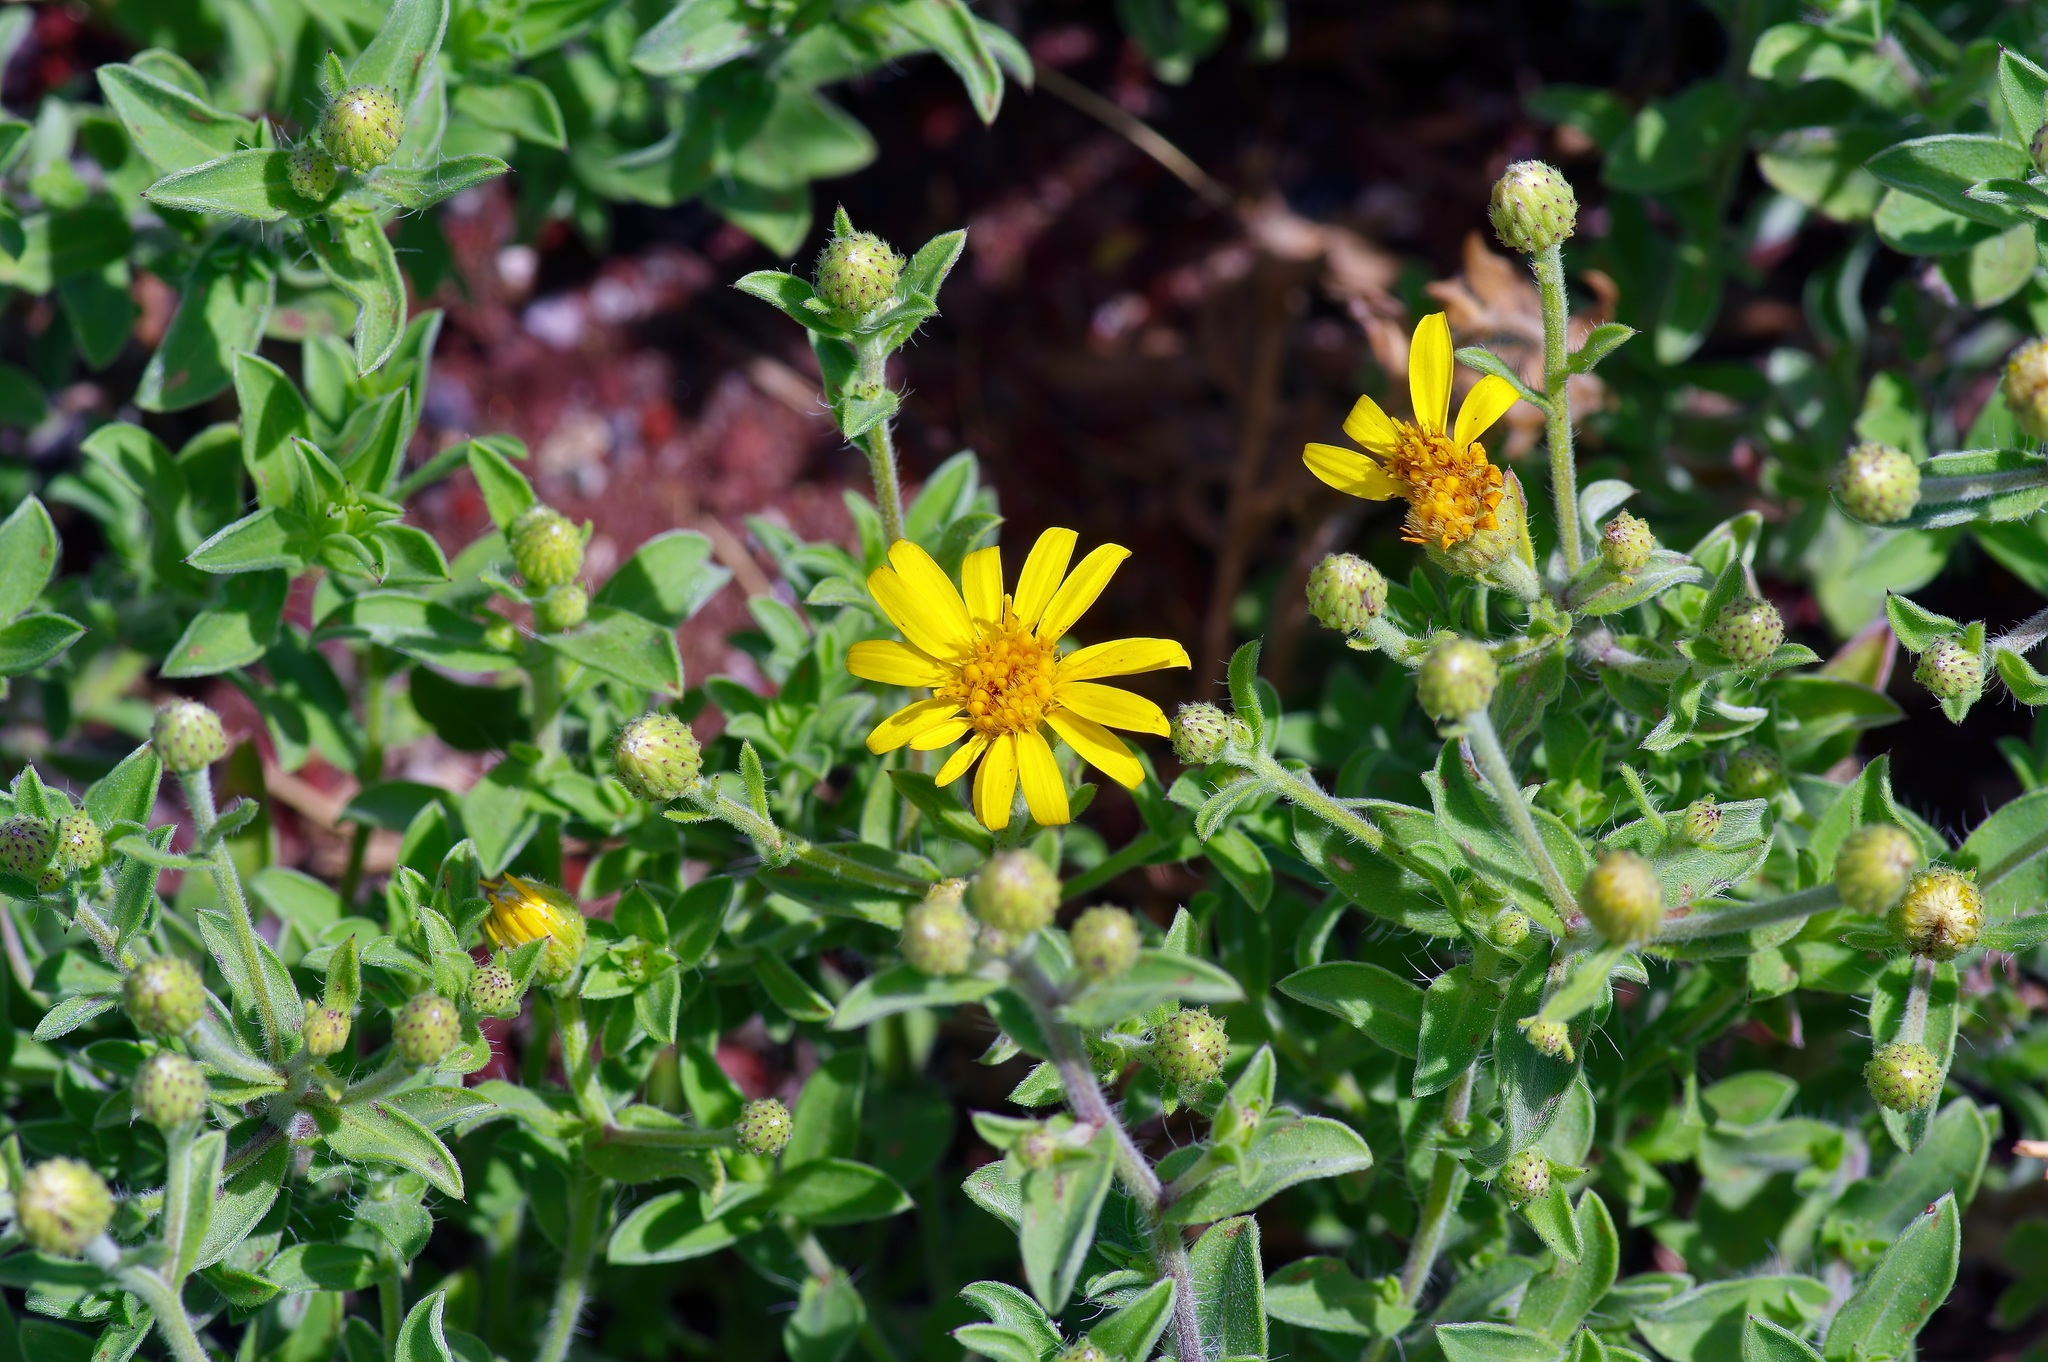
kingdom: Plantae
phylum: Tracheophyta
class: Magnoliopsida
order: Asterales
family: Asteraceae
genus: Heterotheca
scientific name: Heterotheca hirsutissima
